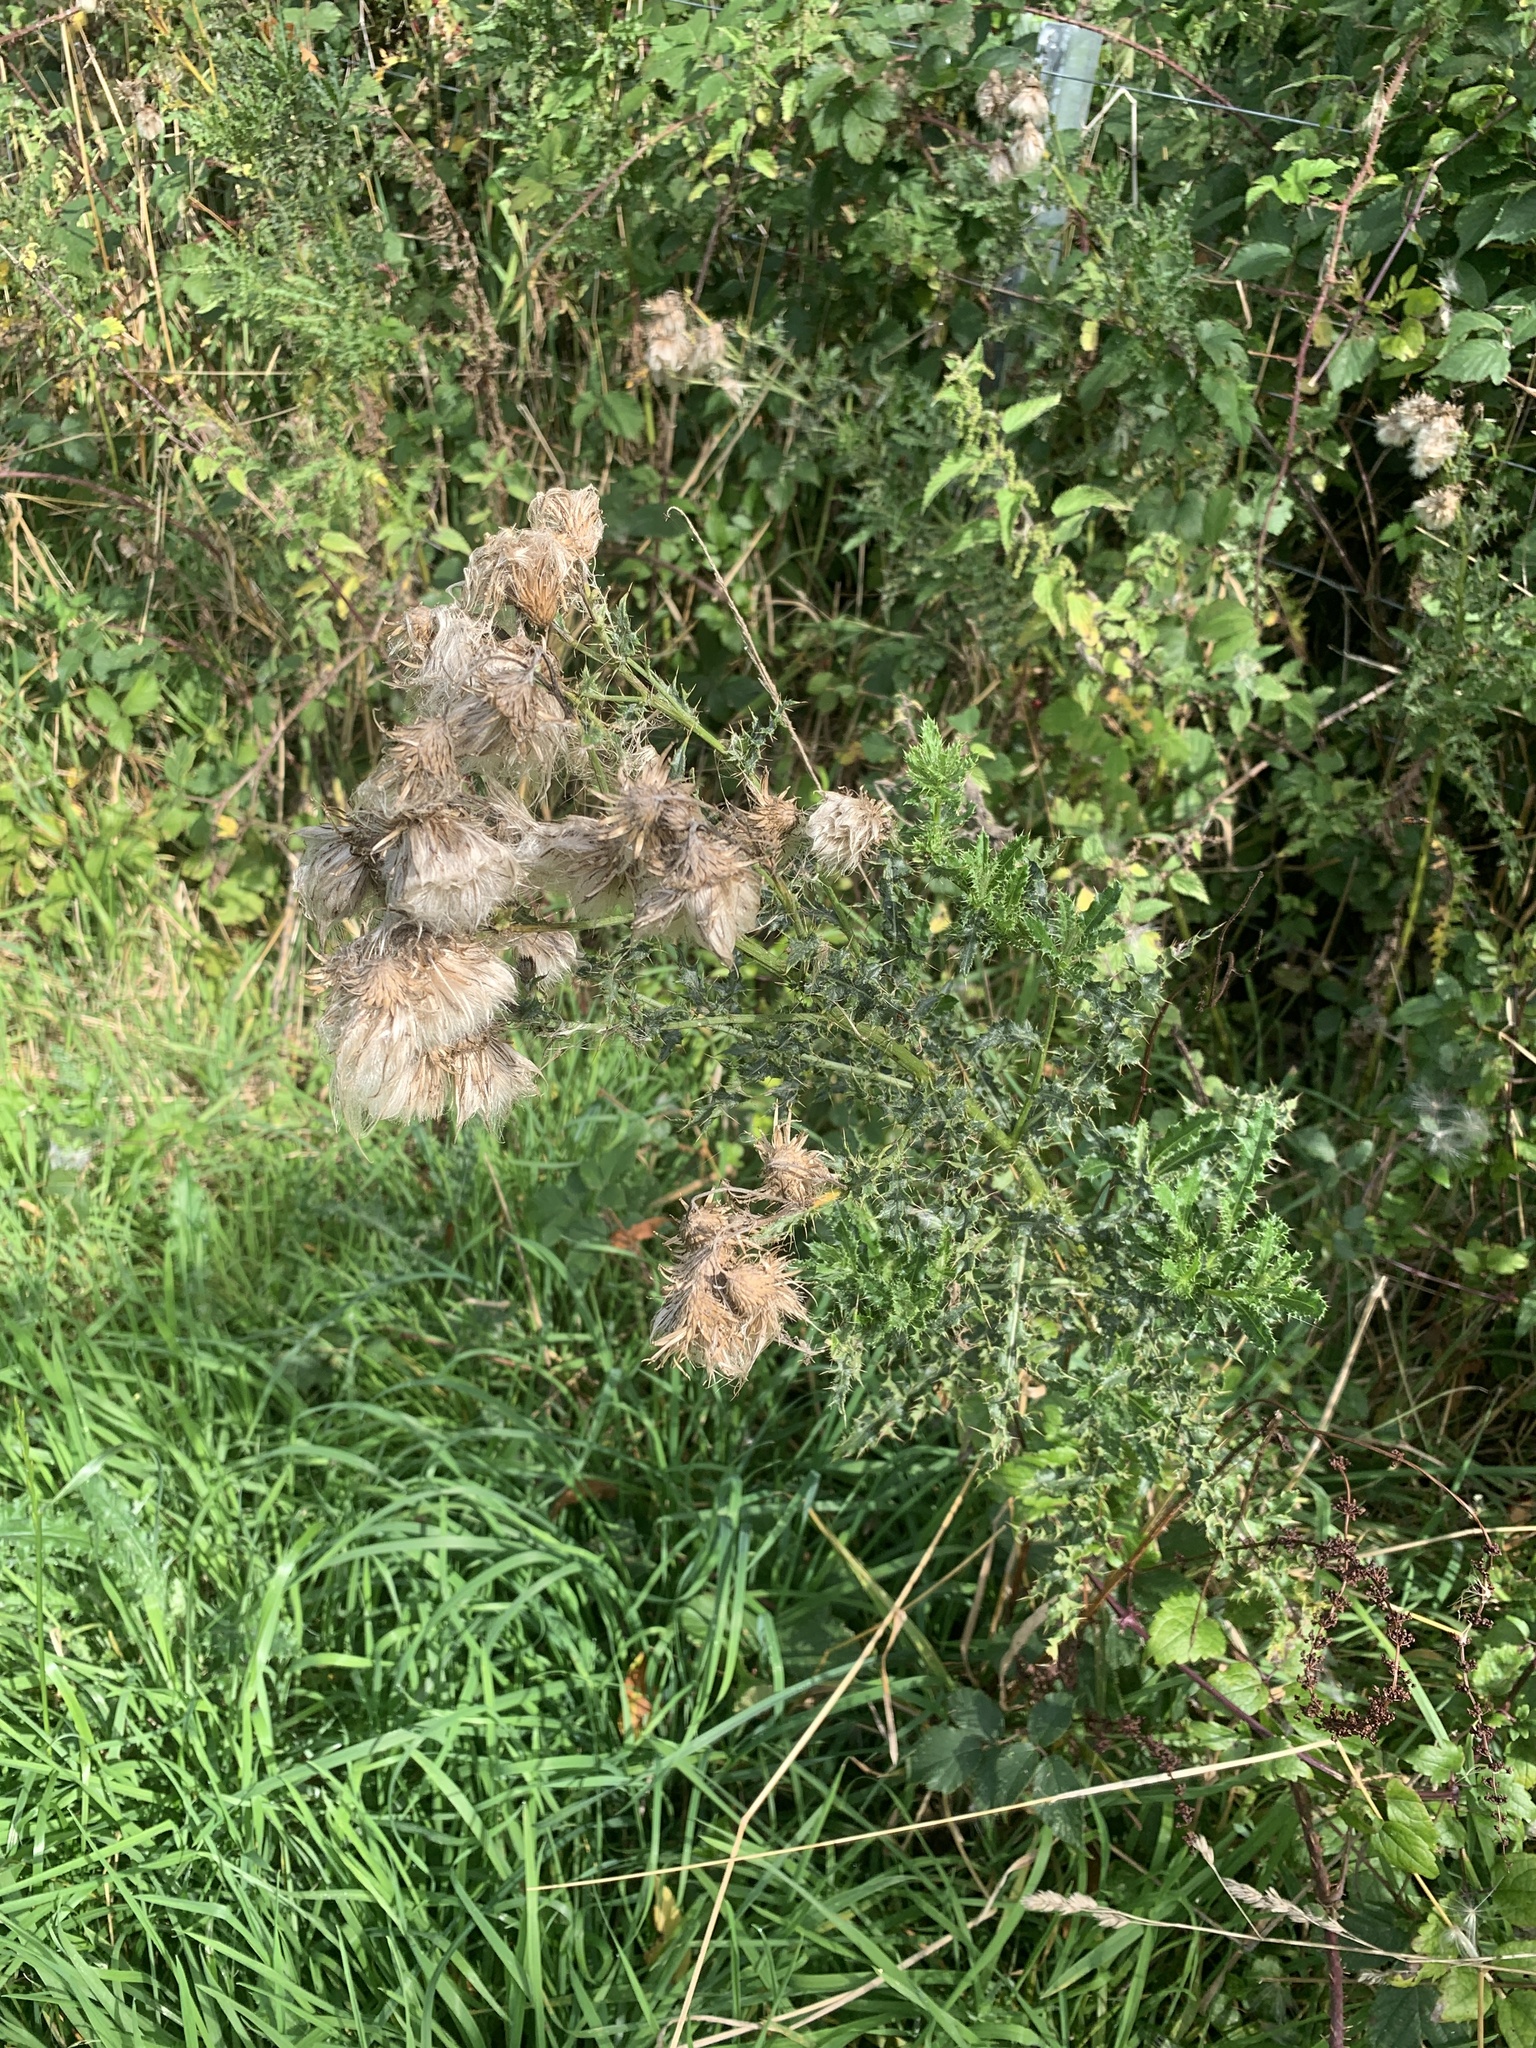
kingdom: Plantae
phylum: Tracheophyta
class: Magnoliopsida
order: Asterales
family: Asteraceae
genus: Cirsium
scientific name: Cirsium arvense
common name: Creeping thistle
